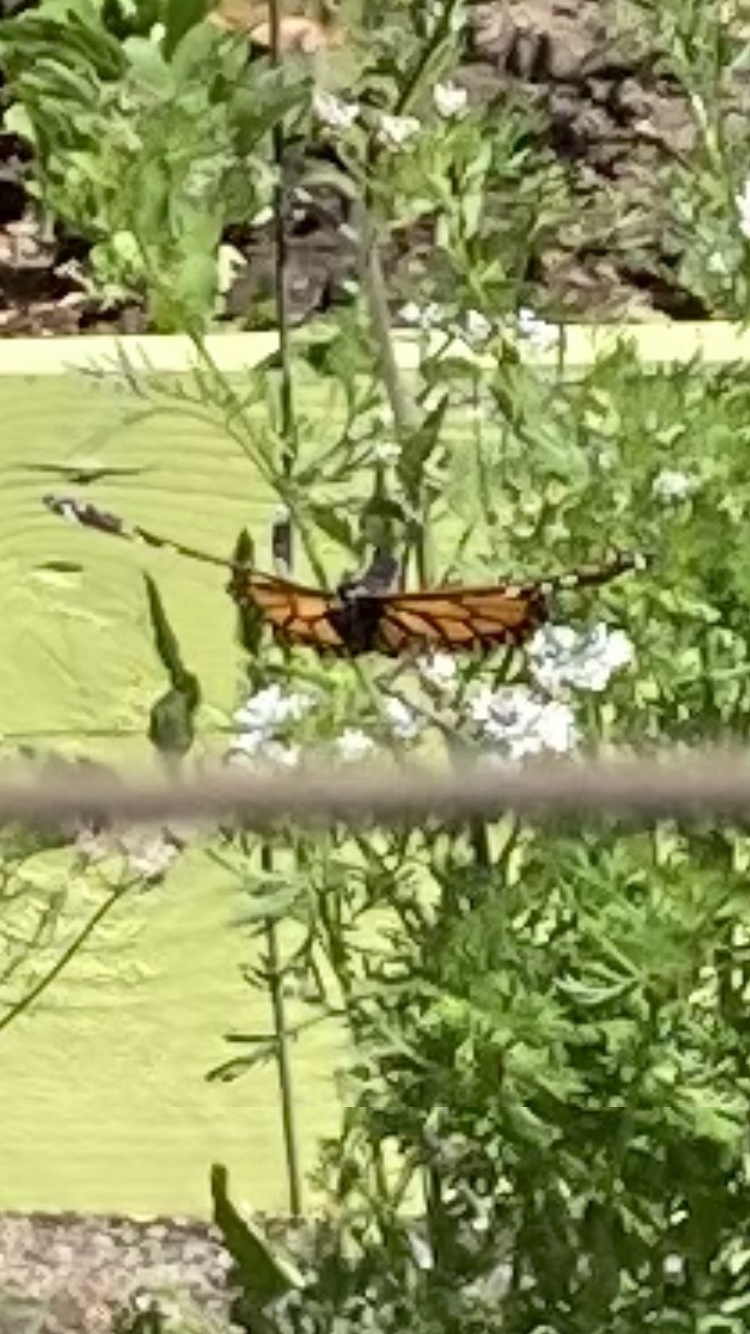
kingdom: Animalia
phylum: Arthropoda
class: Insecta
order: Lepidoptera
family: Nymphalidae
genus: Danaus
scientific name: Danaus plexippus
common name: Monarch
